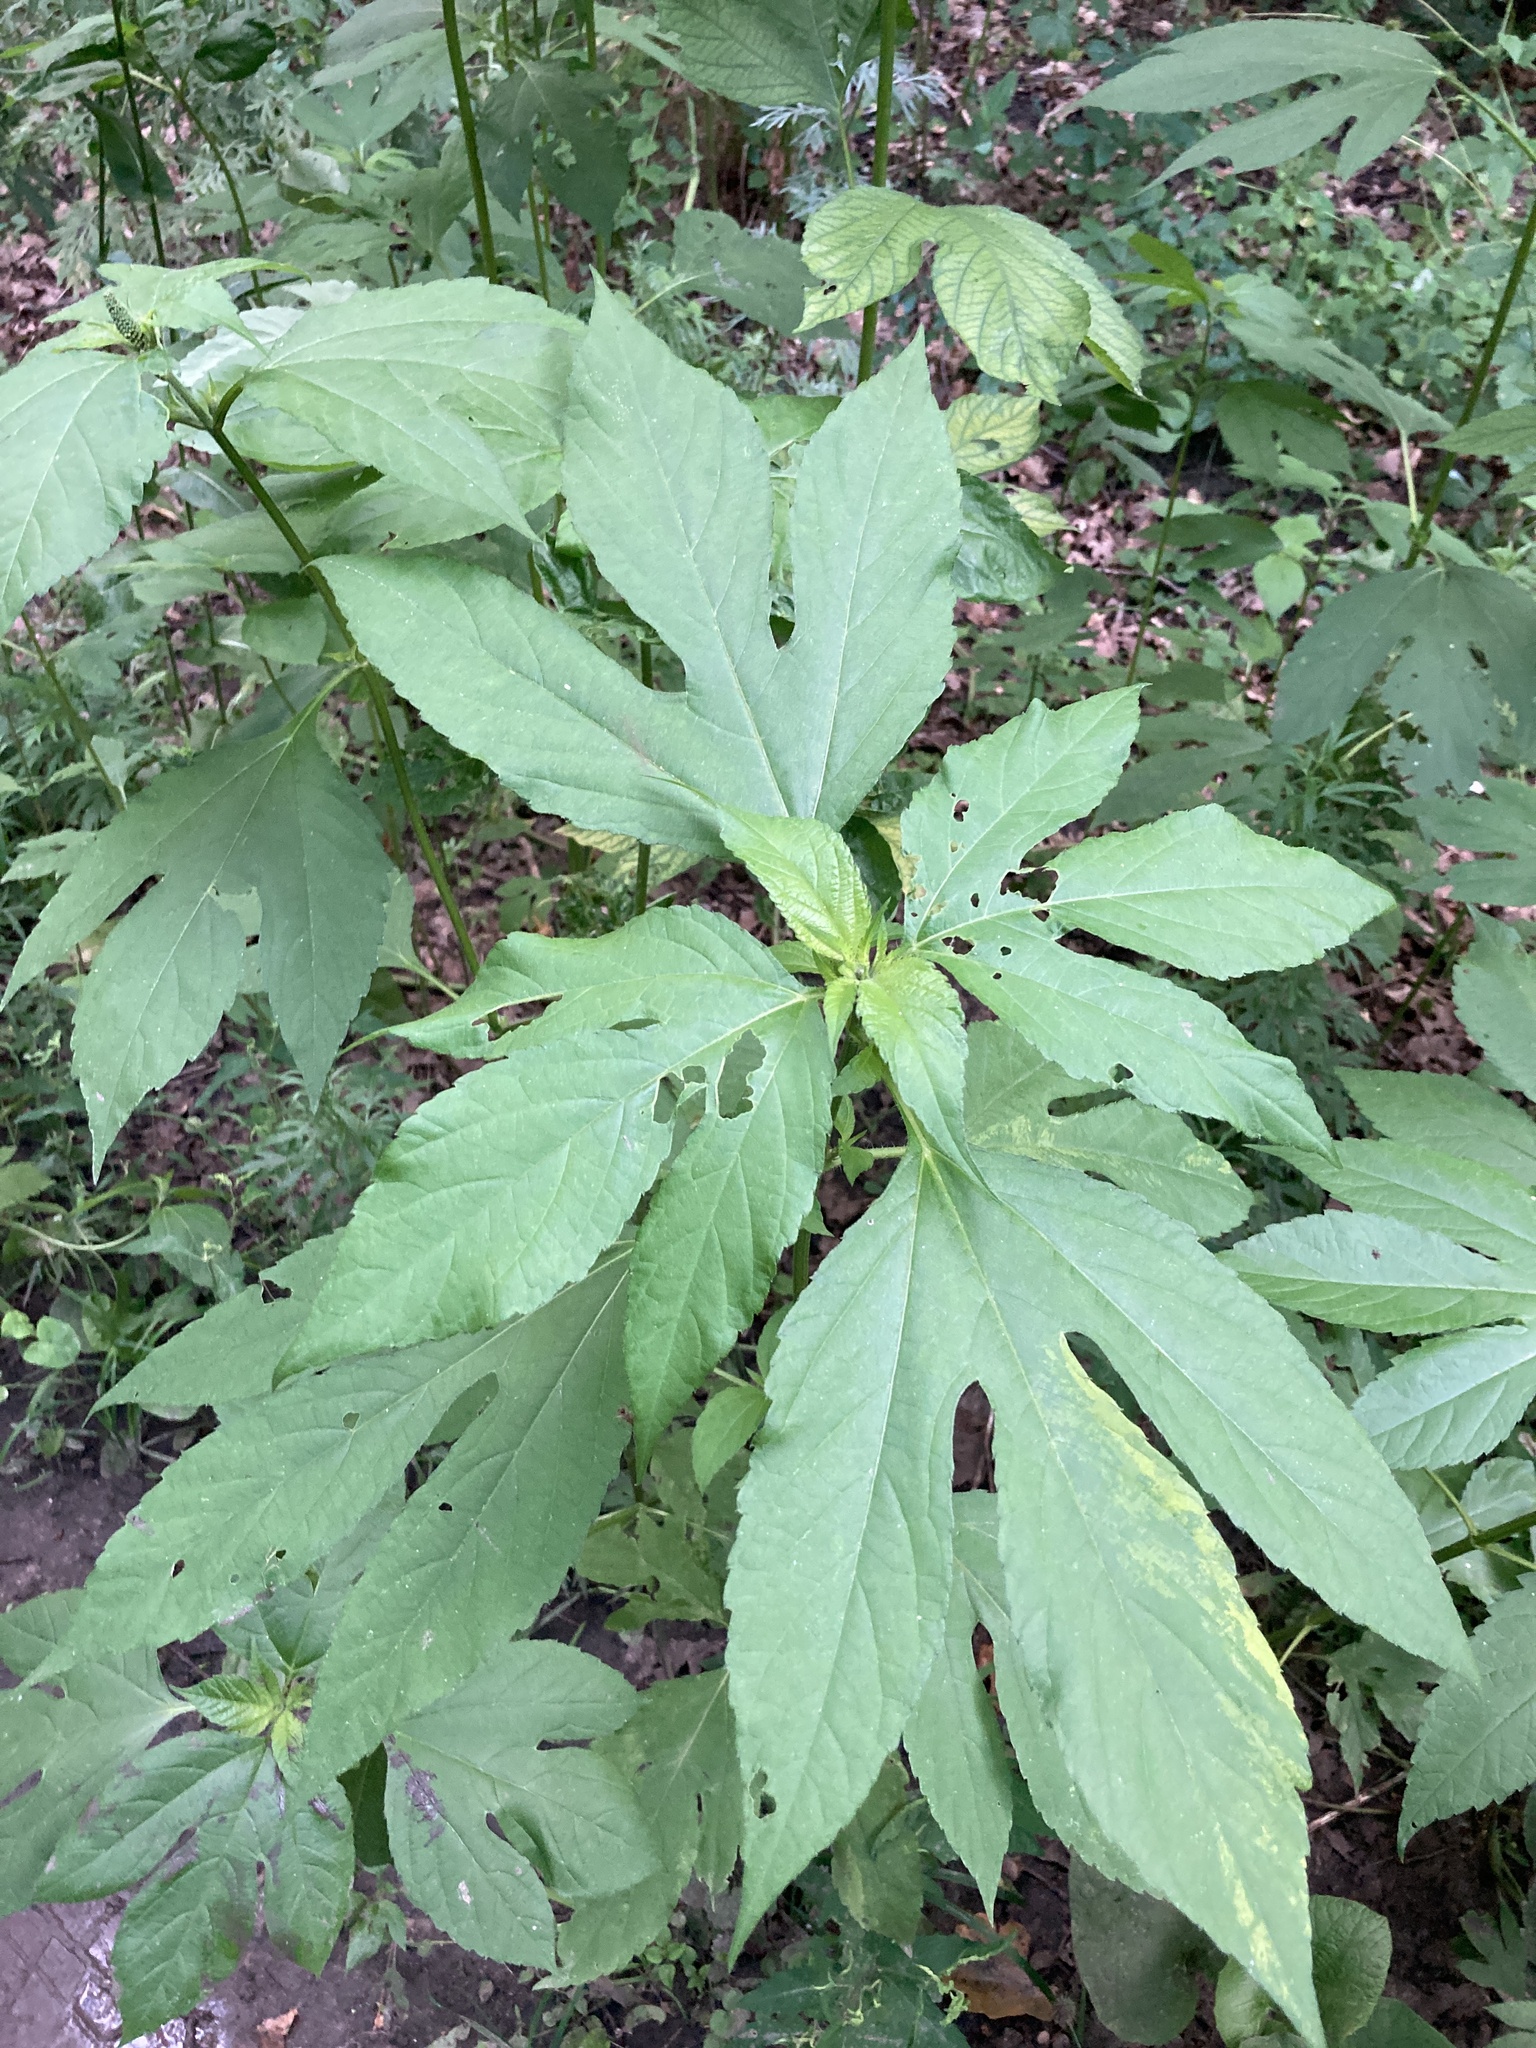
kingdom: Plantae
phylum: Tracheophyta
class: Magnoliopsida
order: Asterales
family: Asteraceae
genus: Ambrosia
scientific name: Ambrosia trifida
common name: Giant ragweed
